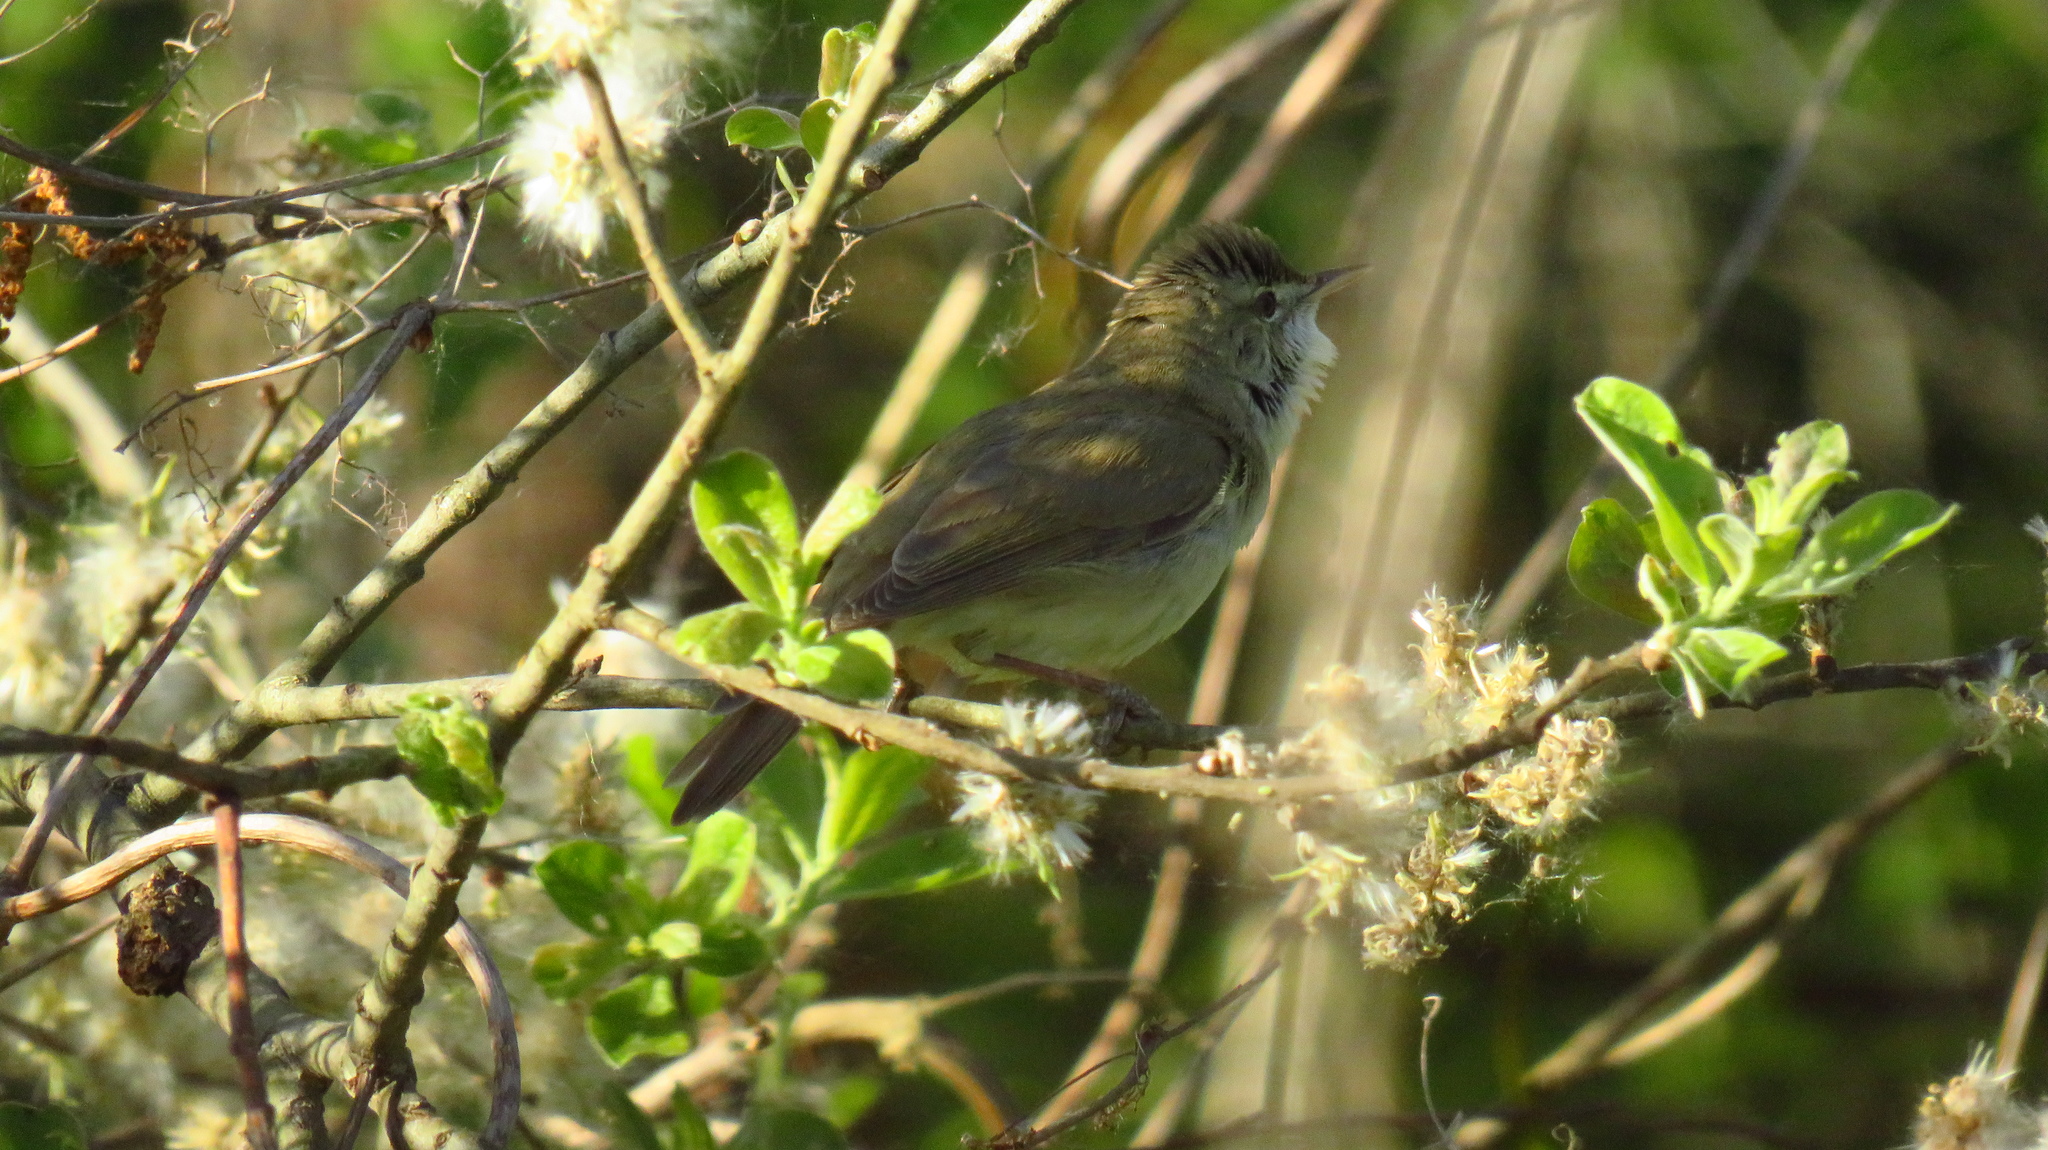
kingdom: Animalia
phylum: Chordata
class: Aves
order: Passeriformes
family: Acrocephalidae
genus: Acrocephalus
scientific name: Acrocephalus dumetorum
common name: Blyth's reed warbler
